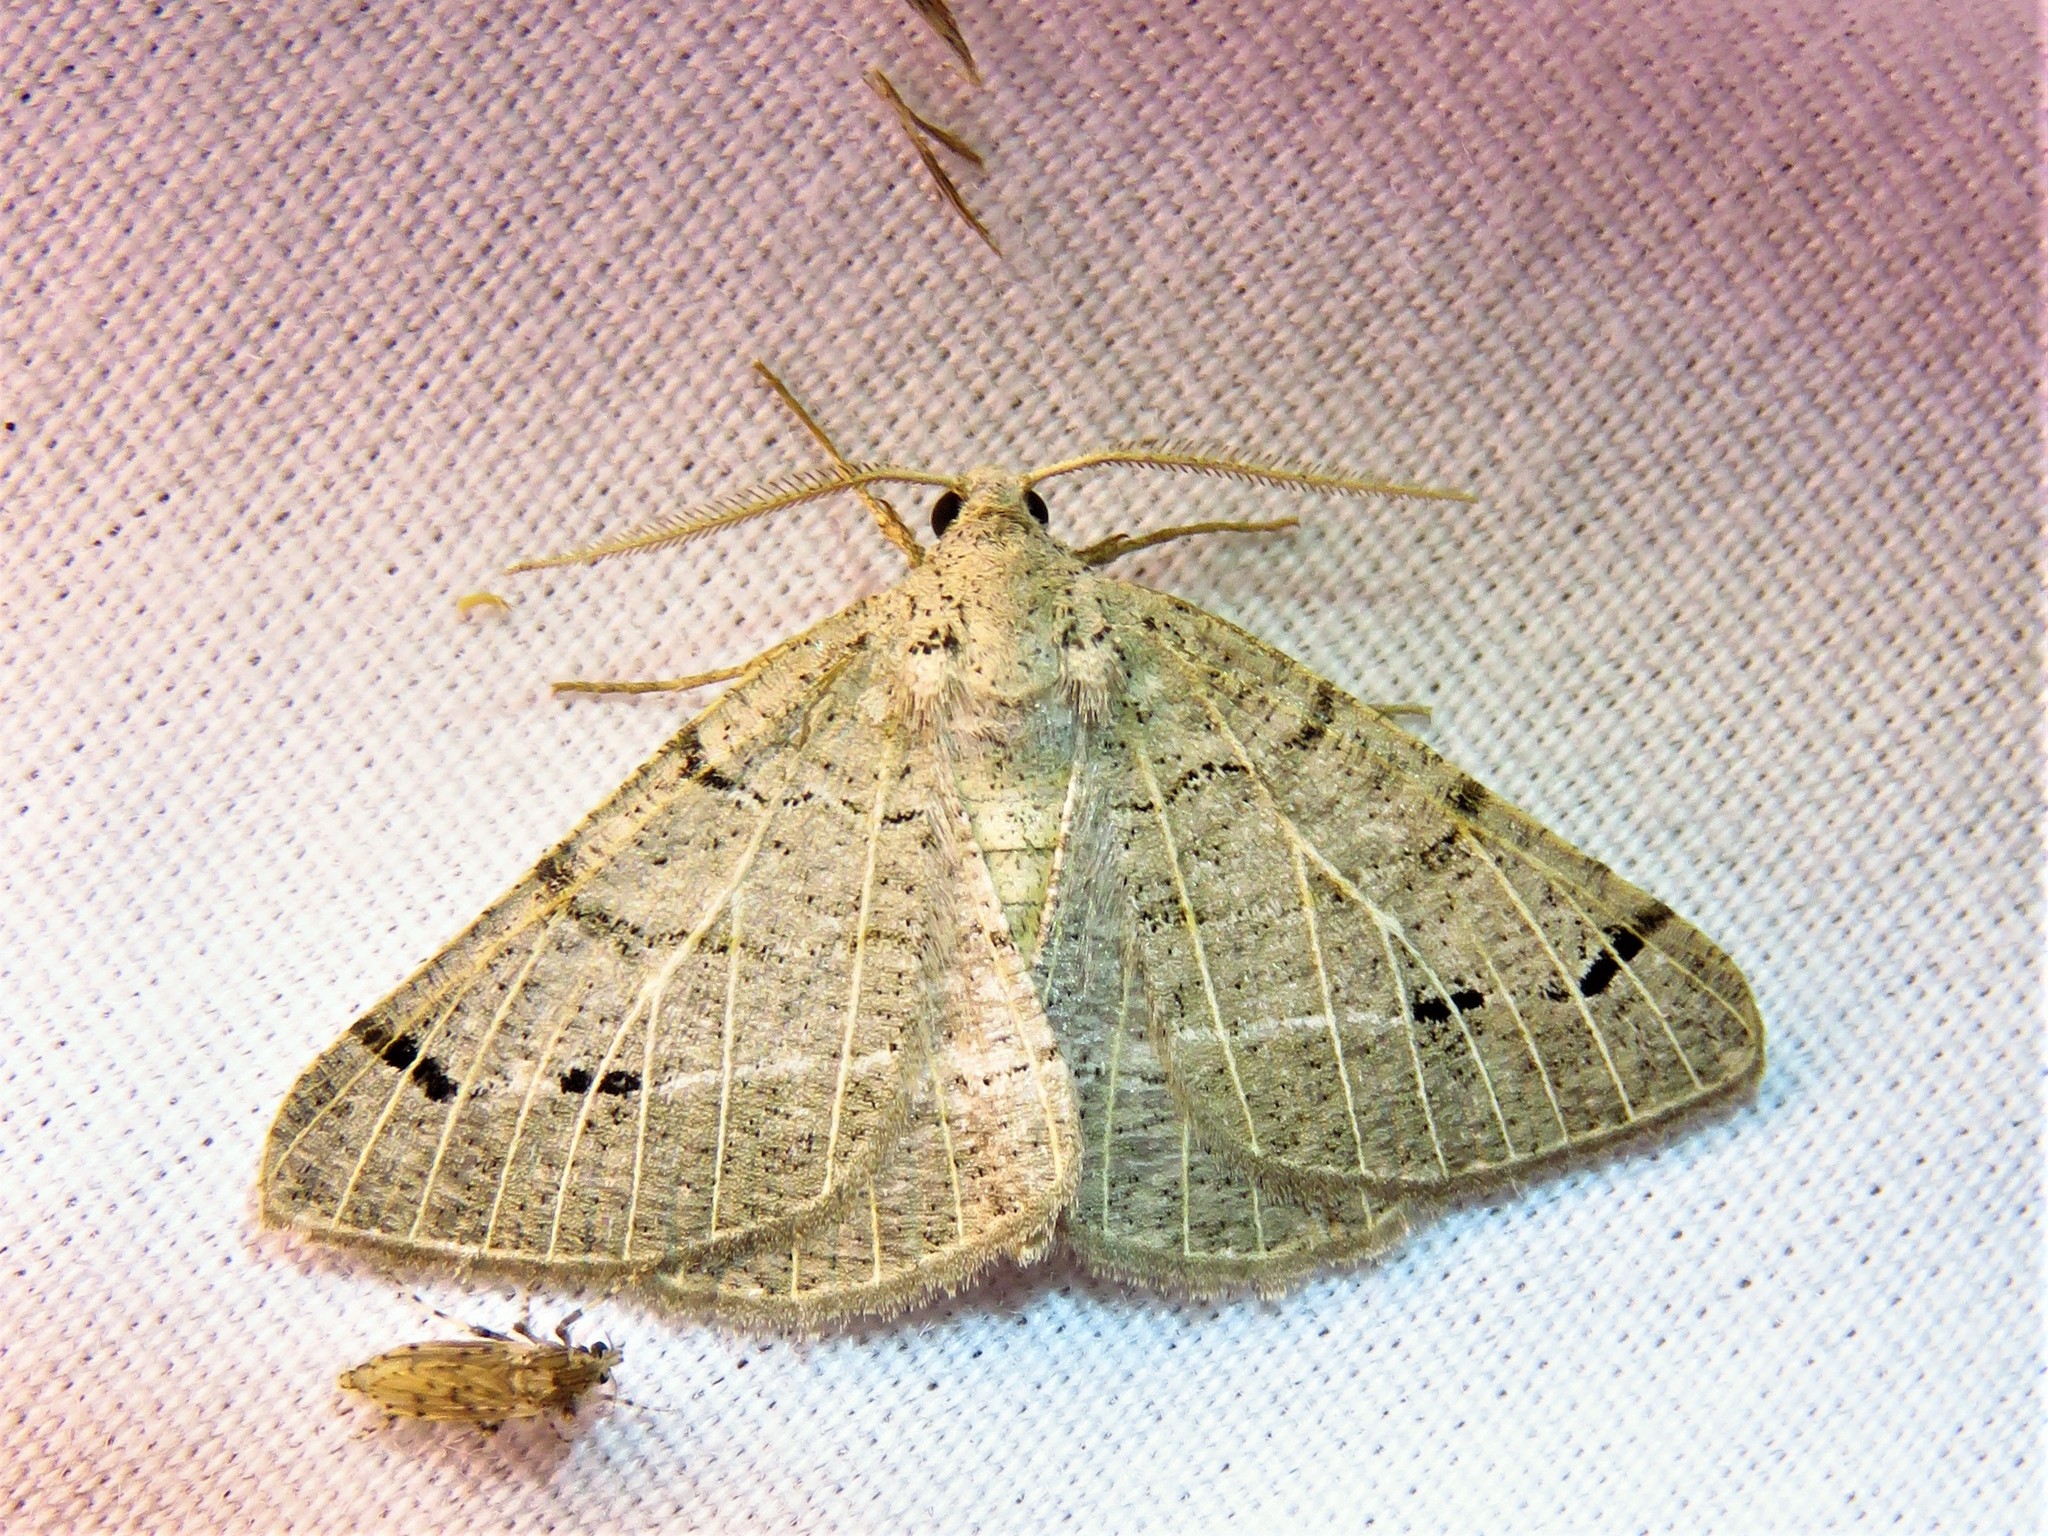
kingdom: Animalia
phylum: Arthropoda
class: Insecta
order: Lepidoptera
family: Geometridae
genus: Isturgia
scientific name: Isturgia dislocaria
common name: Pale-viened enconista
